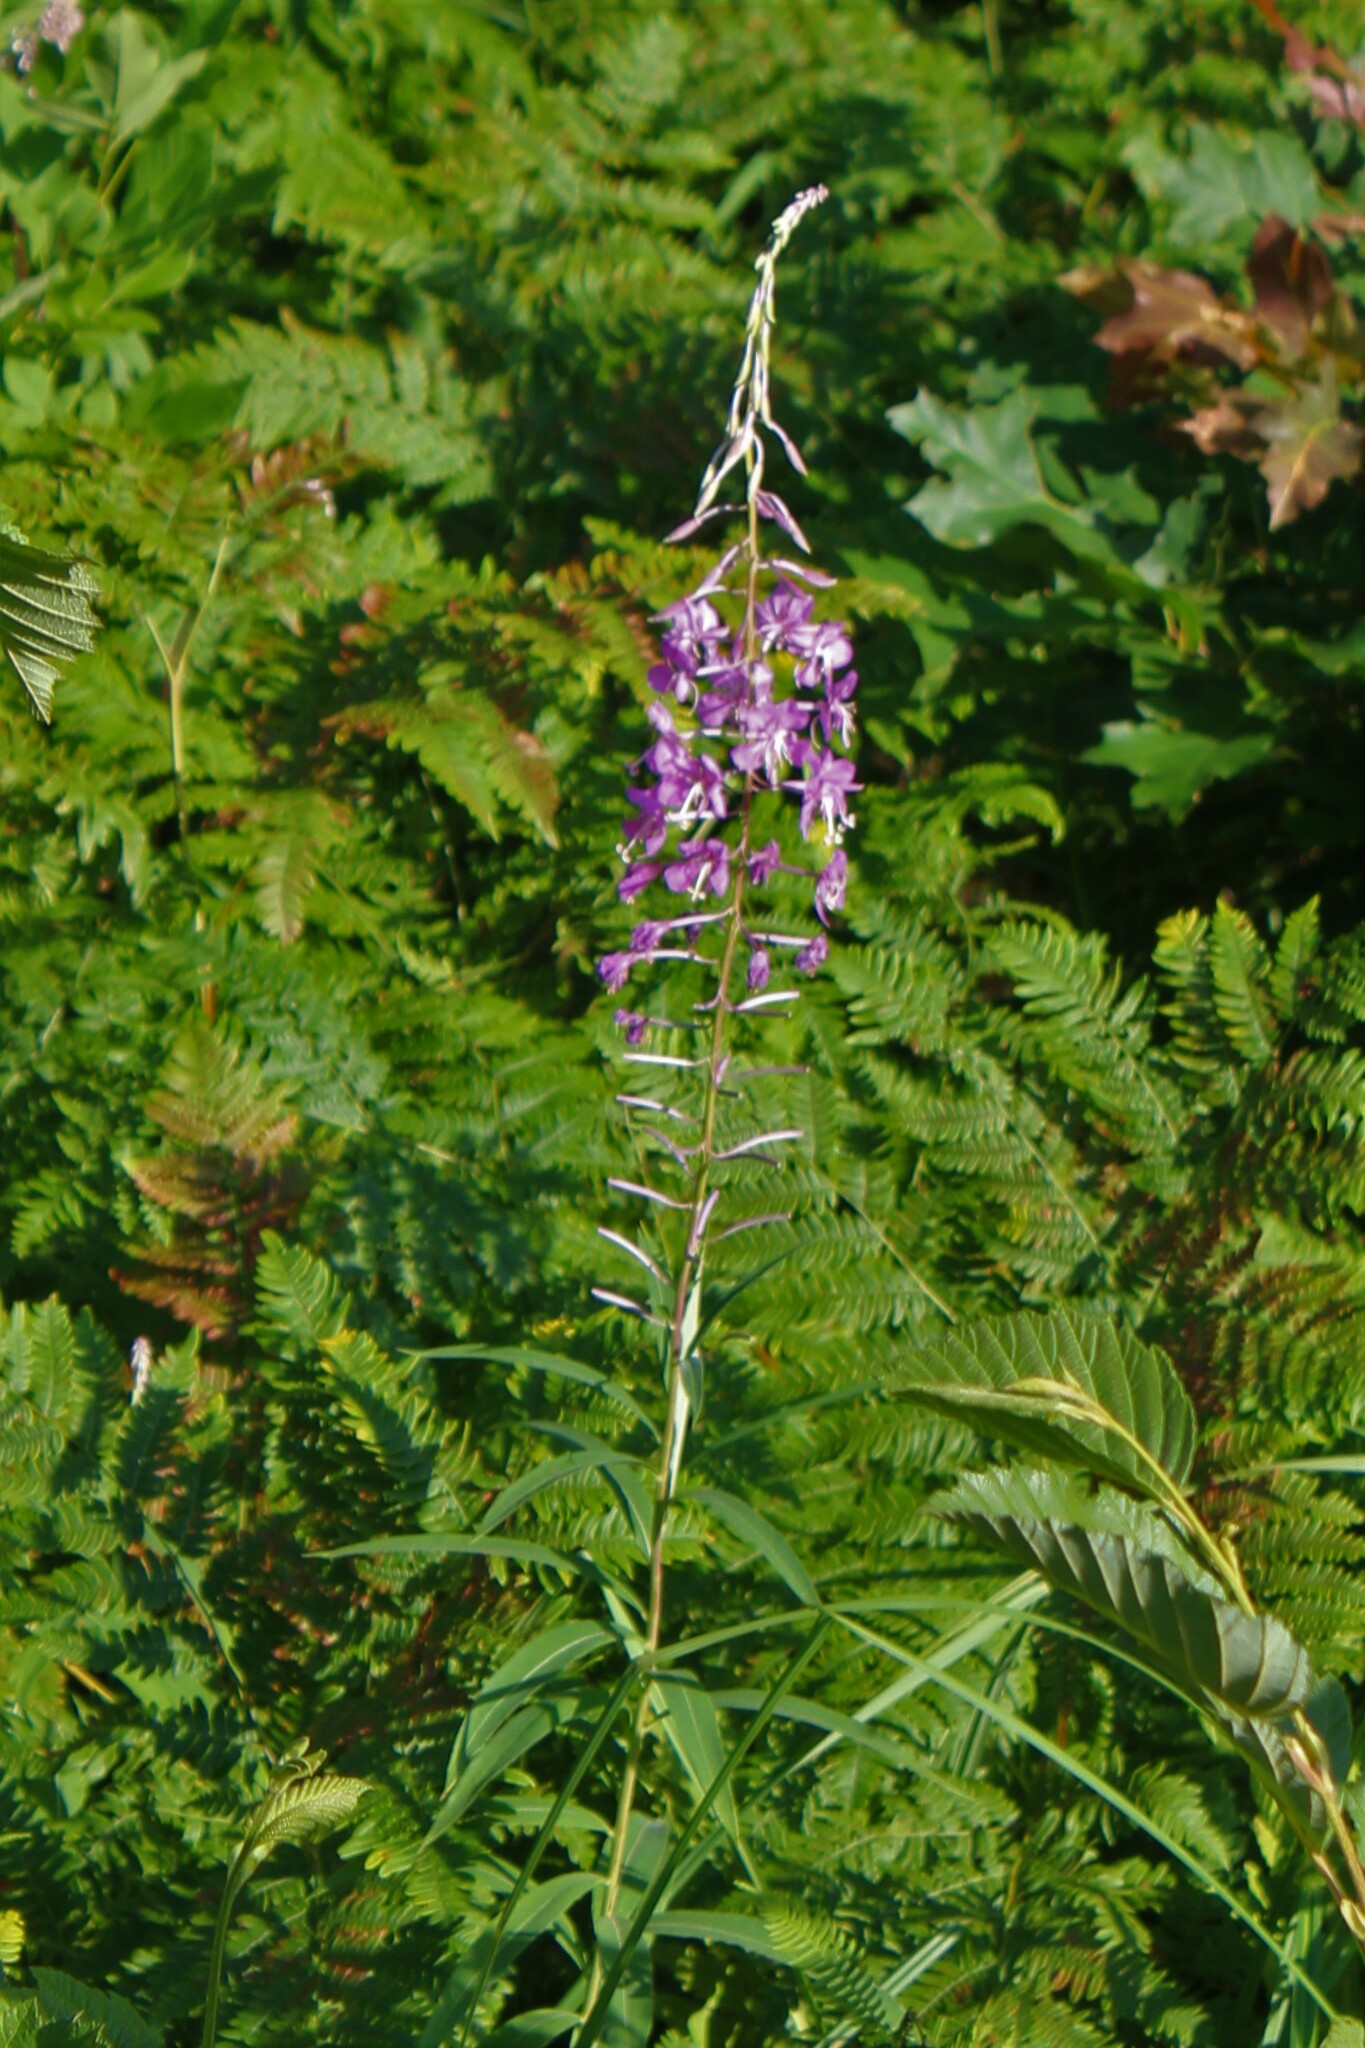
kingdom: Plantae
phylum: Tracheophyta
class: Magnoliopsida
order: Myrtales
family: Onagraceae
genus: Chamaenerion
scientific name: Chamaenerion angustifolium
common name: Fireweed
